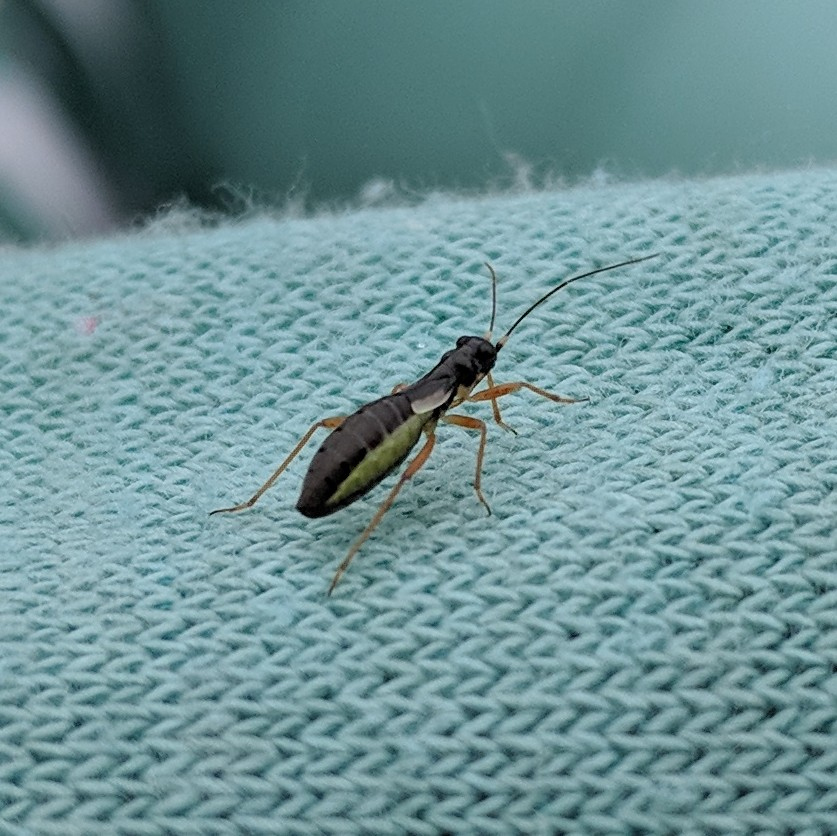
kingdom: Animalia
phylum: Arthropoda
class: Insecta
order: Hemiptera
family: Miridae
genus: Pithanus
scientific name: Pithanus maerkelii
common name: Plant bug
